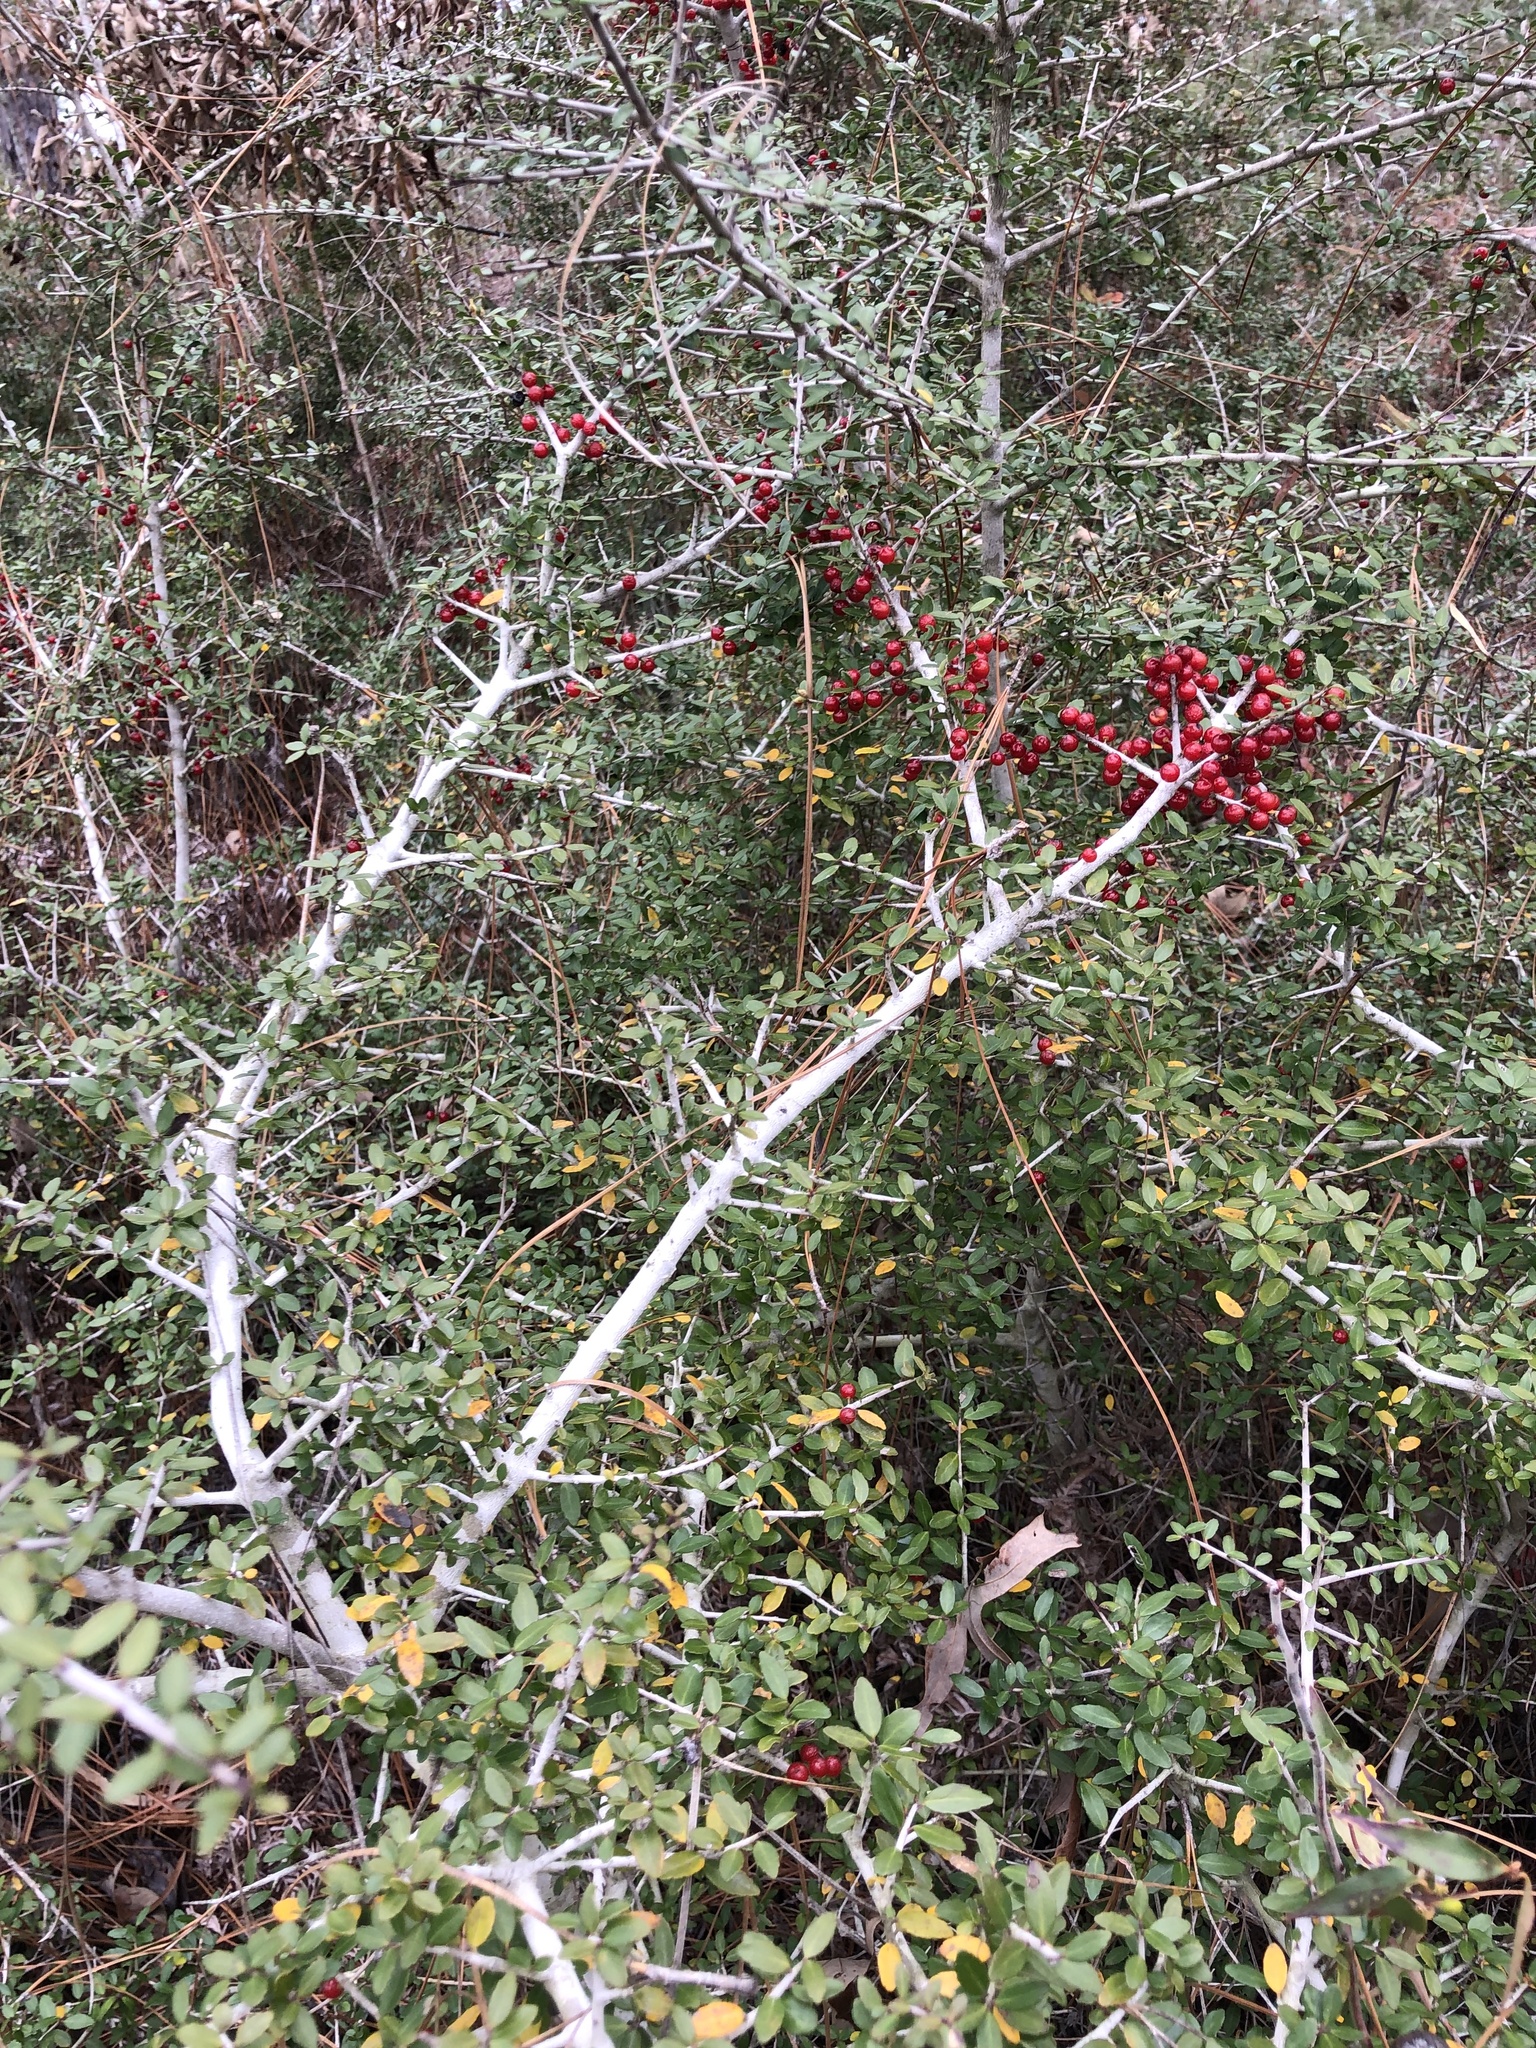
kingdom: Plantae
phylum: Tracheophyta
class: Magnoliopsida
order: Aquifoliales
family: Aquifoliaceae
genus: Ilex
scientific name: Ilex vomitoria
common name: Yaupon holly
